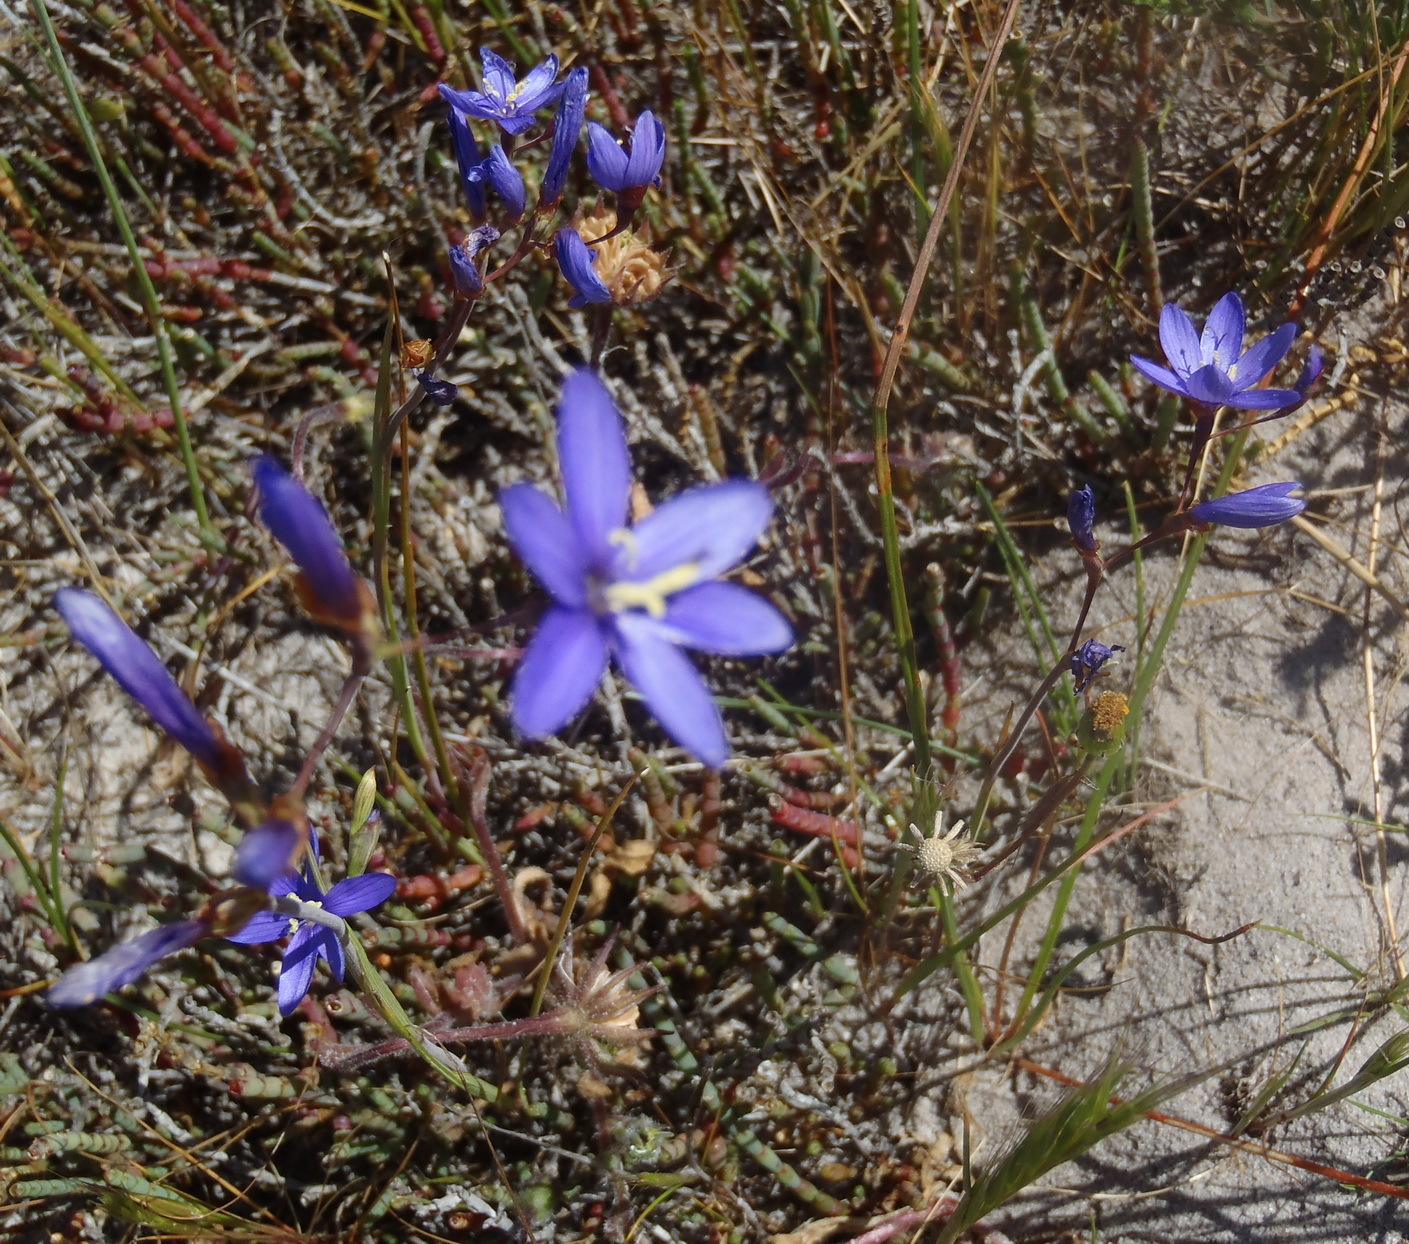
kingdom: Plantae
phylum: Tracheophyta
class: Liliopsida
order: Asparagales
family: Iridaceae
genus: Geissorhiza
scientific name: Geissorhiza aspera
